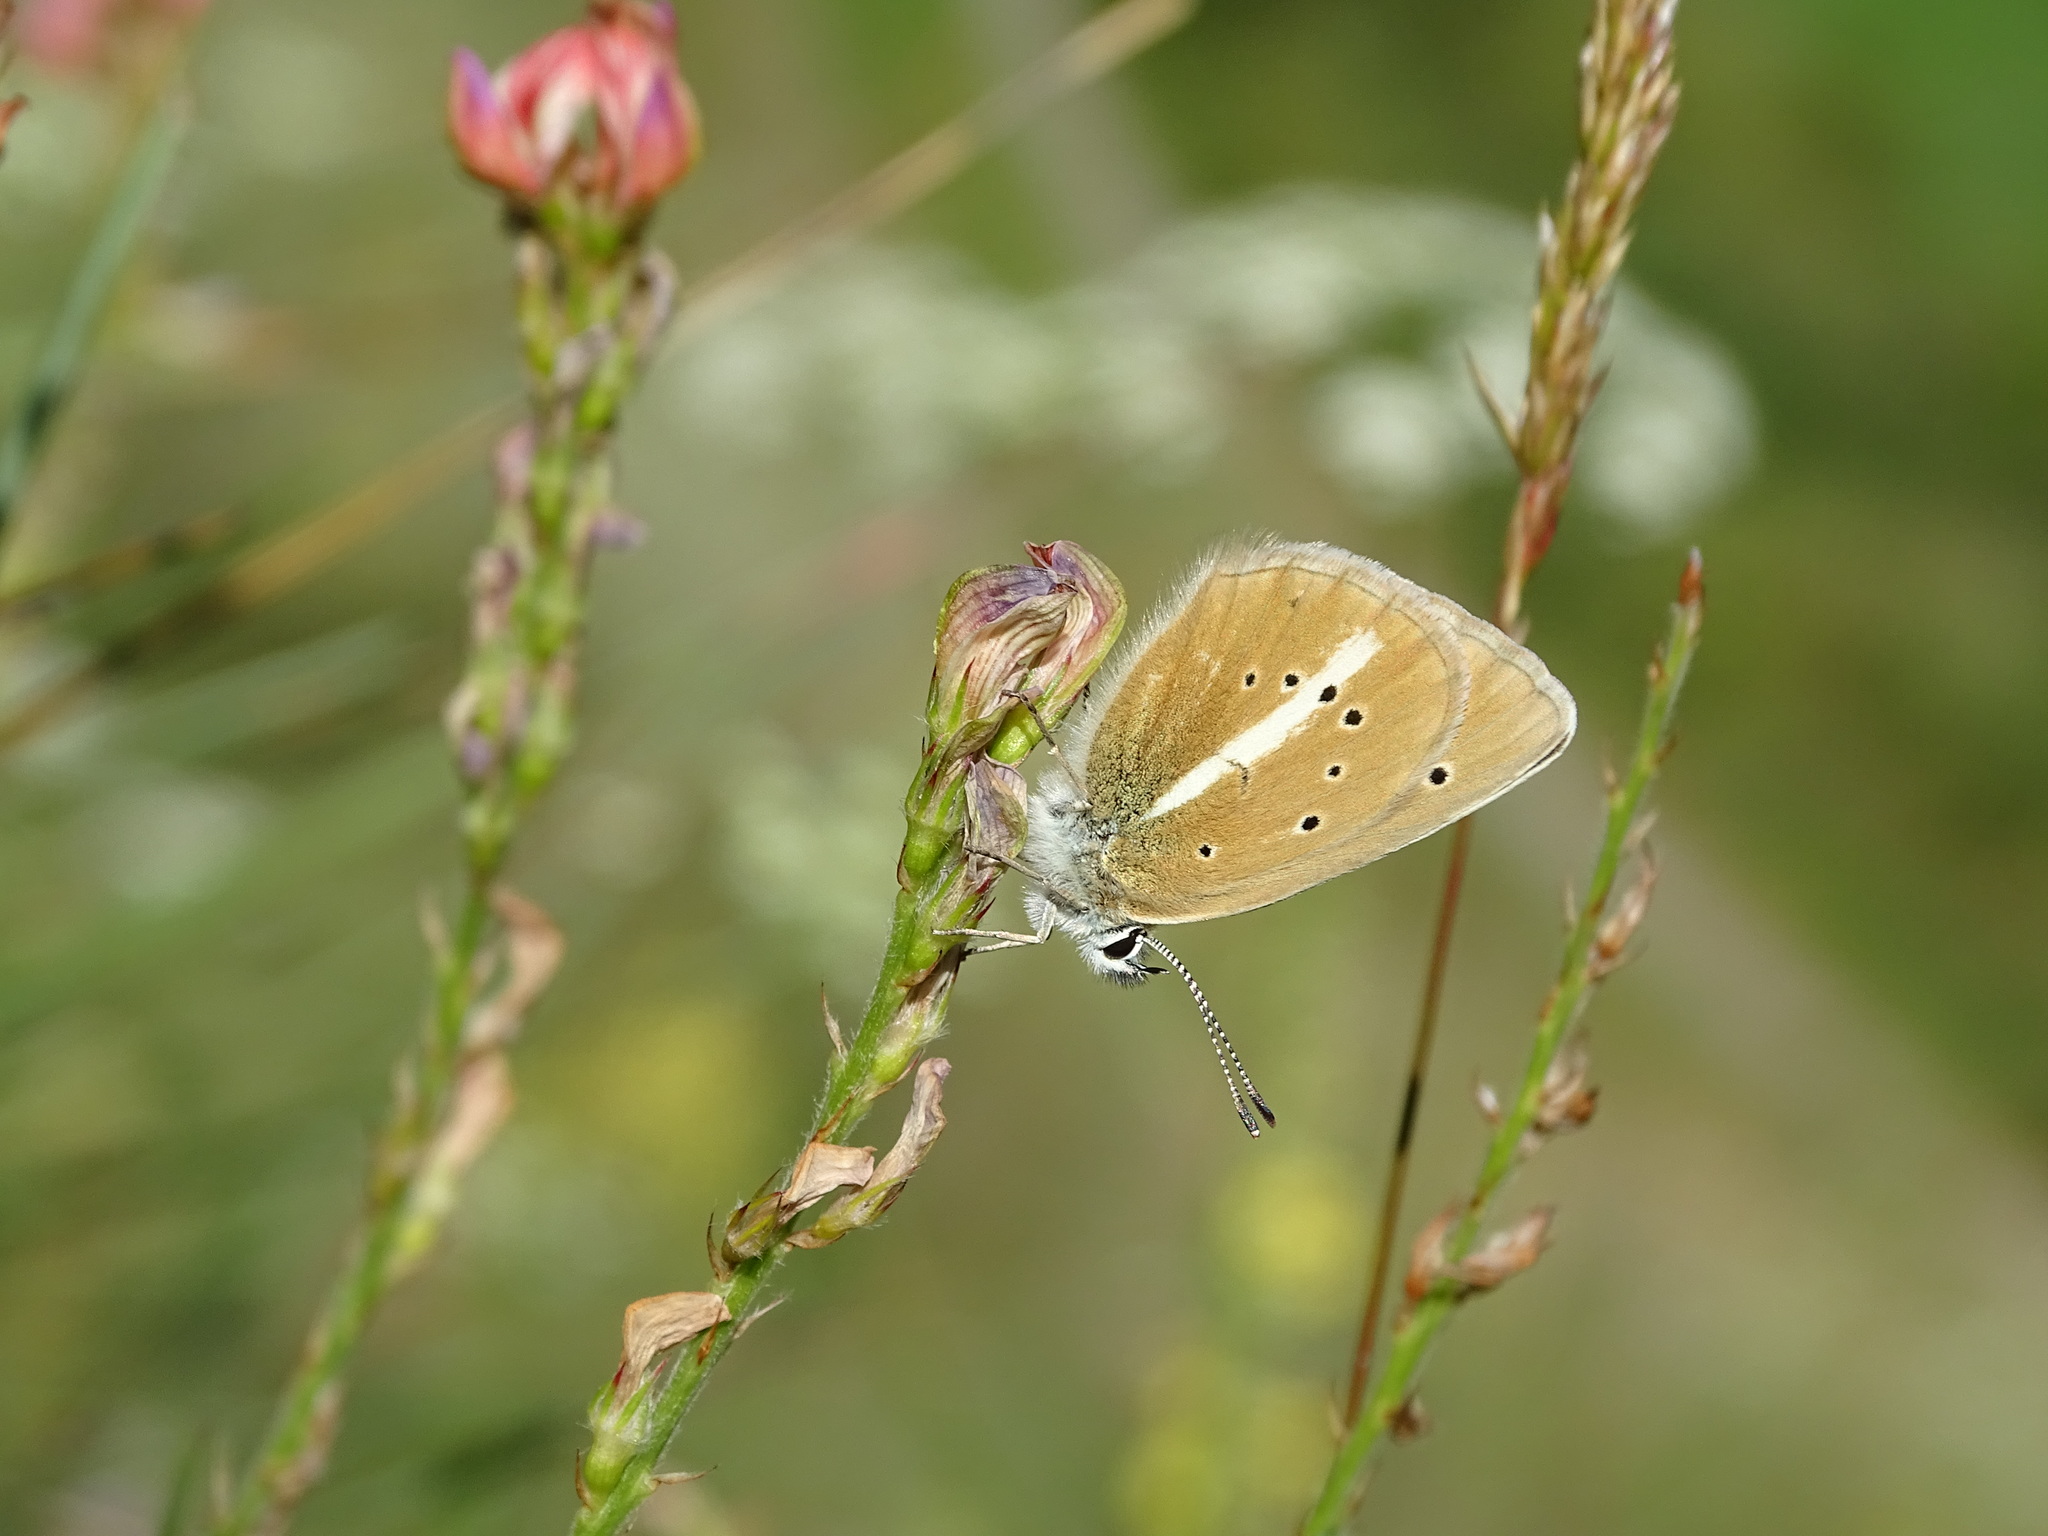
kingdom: Animalia
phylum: Arthropoda
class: Insecta
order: Lepidoptera
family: Lycaenidae
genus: Agrodiaetus
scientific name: Agrodiaetus damon
